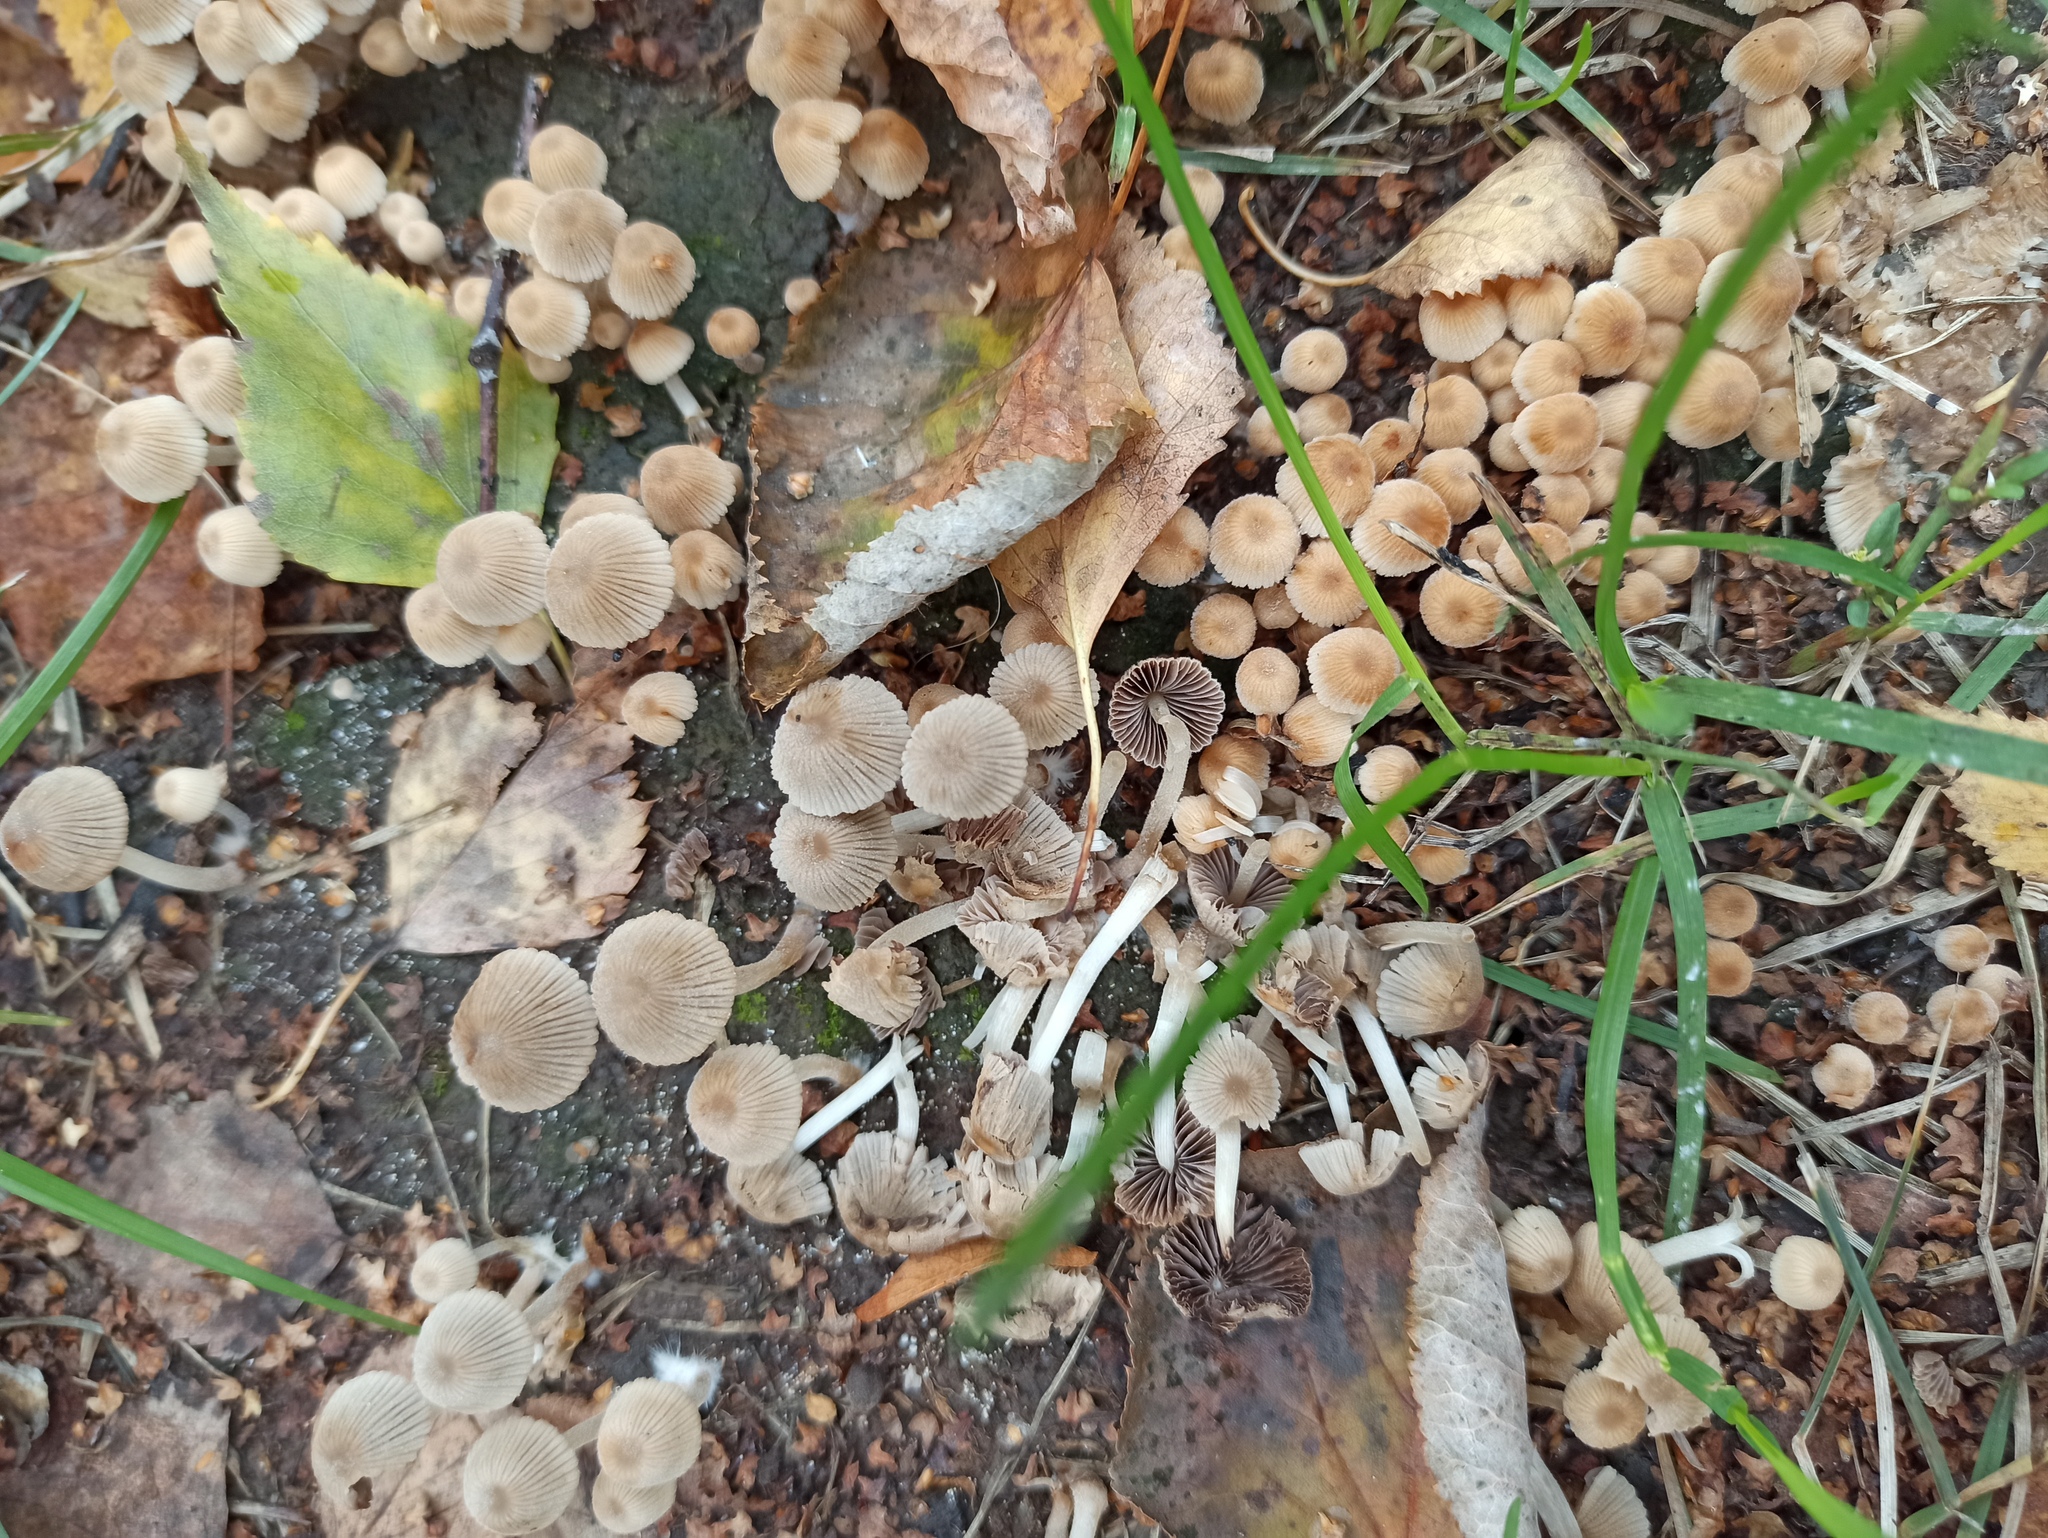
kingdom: Fungi
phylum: Basidiomycota
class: Agaricomycetes
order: Agaricales
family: Psathyrellaceae
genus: Coprinellus
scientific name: Coprinellus disseminatus
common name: Fairies' bonnets
